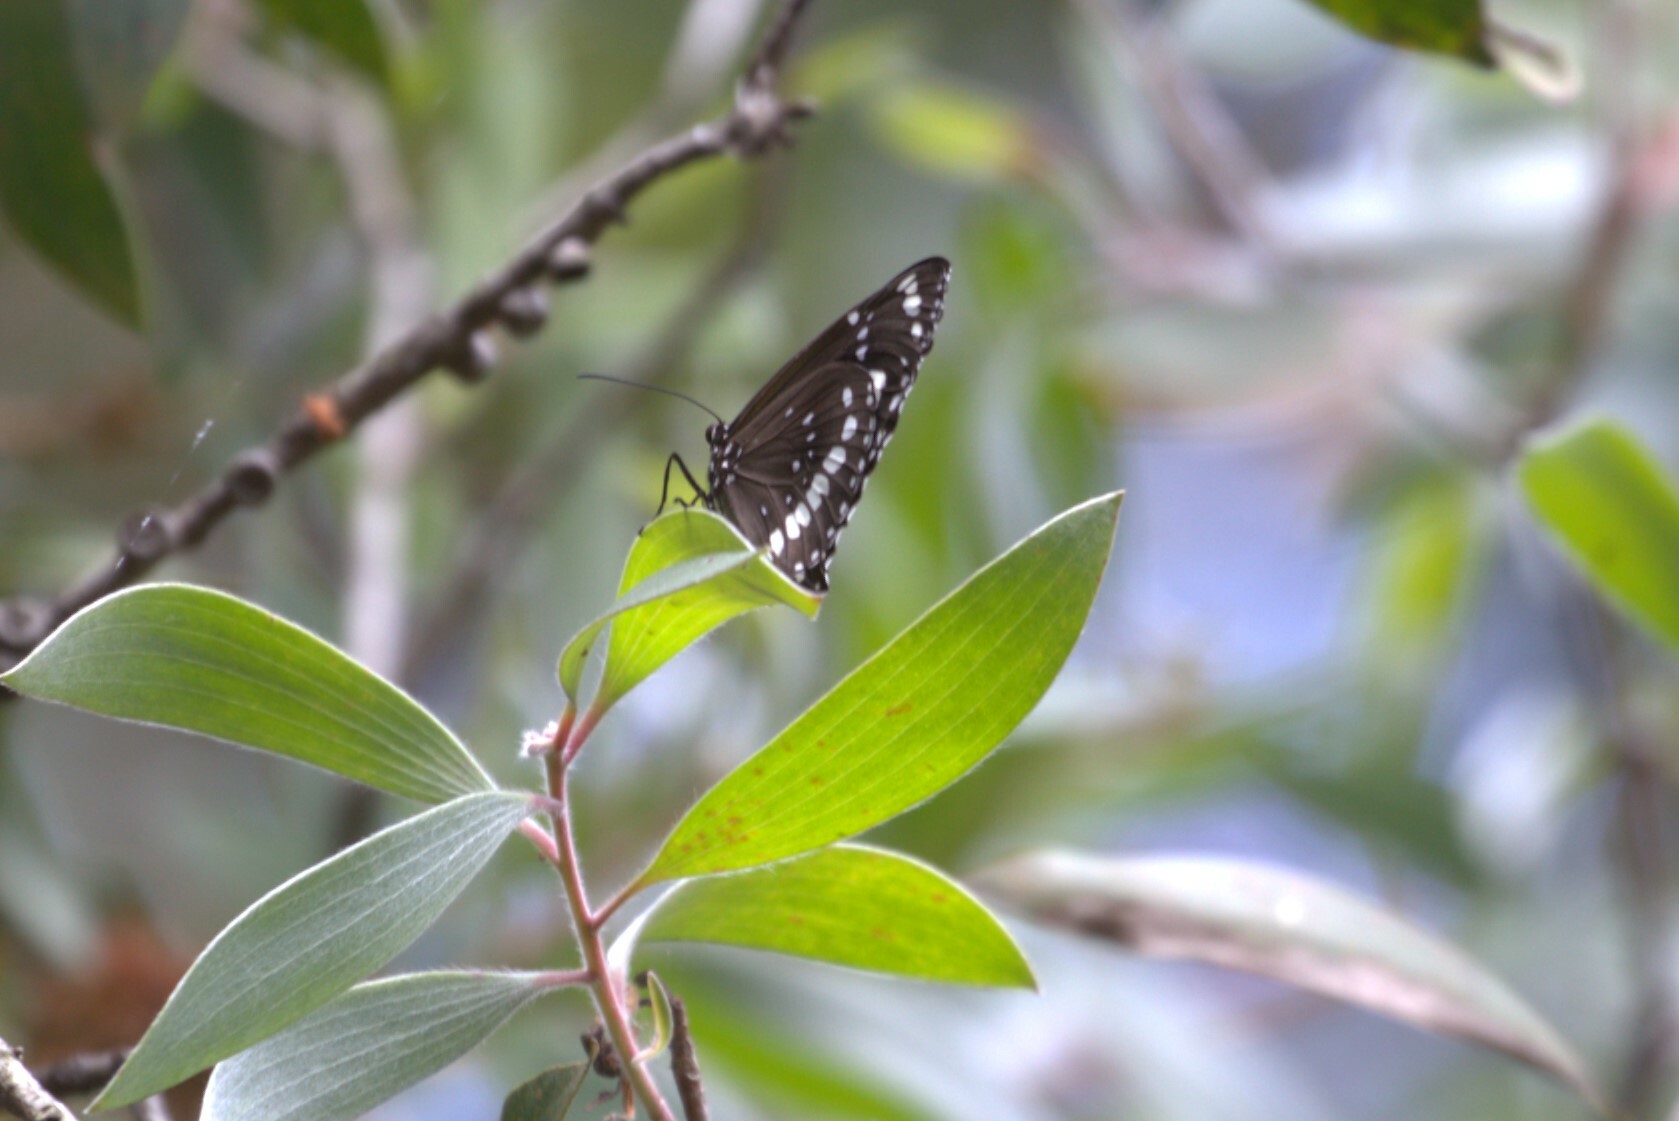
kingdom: Animalia
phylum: Arthropoda
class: Insecta
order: Lepidoptera
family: Nymphalidae
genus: Euploea
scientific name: Euploea core
